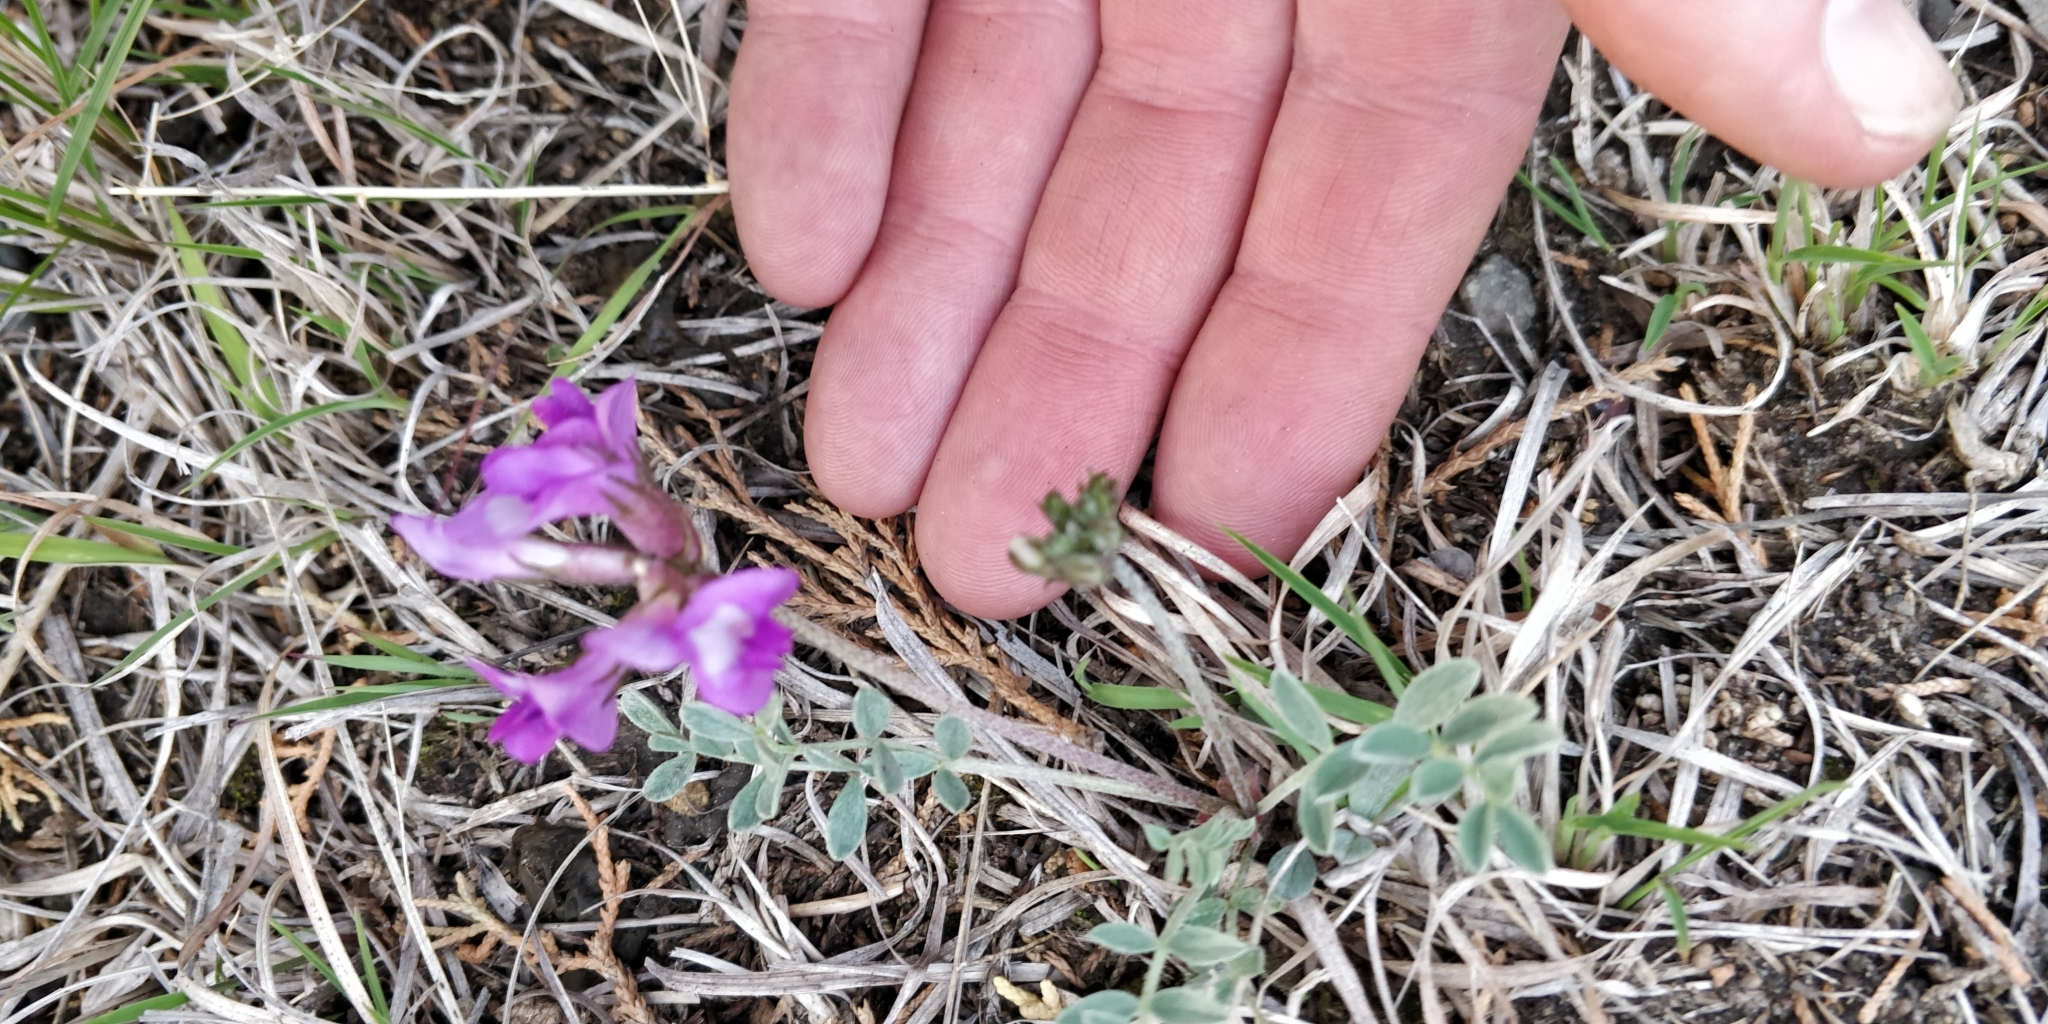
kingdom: Plantae
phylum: Tracheophyta
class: Magnoliopsida
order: Fabales
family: Fabaceae
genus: Astragalus
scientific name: Astragalus missouriensis
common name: Missouri milk-vetch
